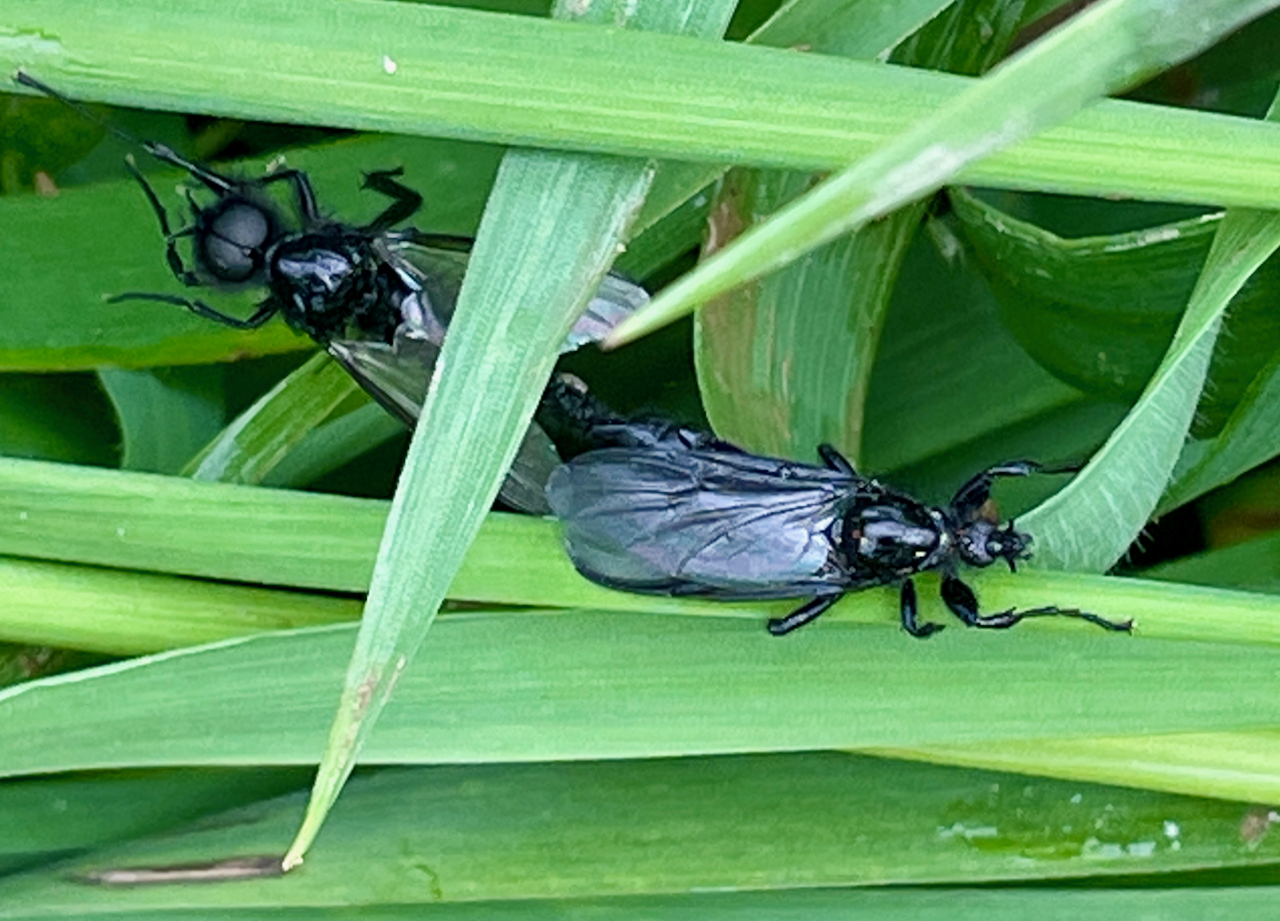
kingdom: Animalia
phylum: Arthropoda
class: Insecta
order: Diptera
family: Bibionidae
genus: Bibio
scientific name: Bibio marci
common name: St marks fly
